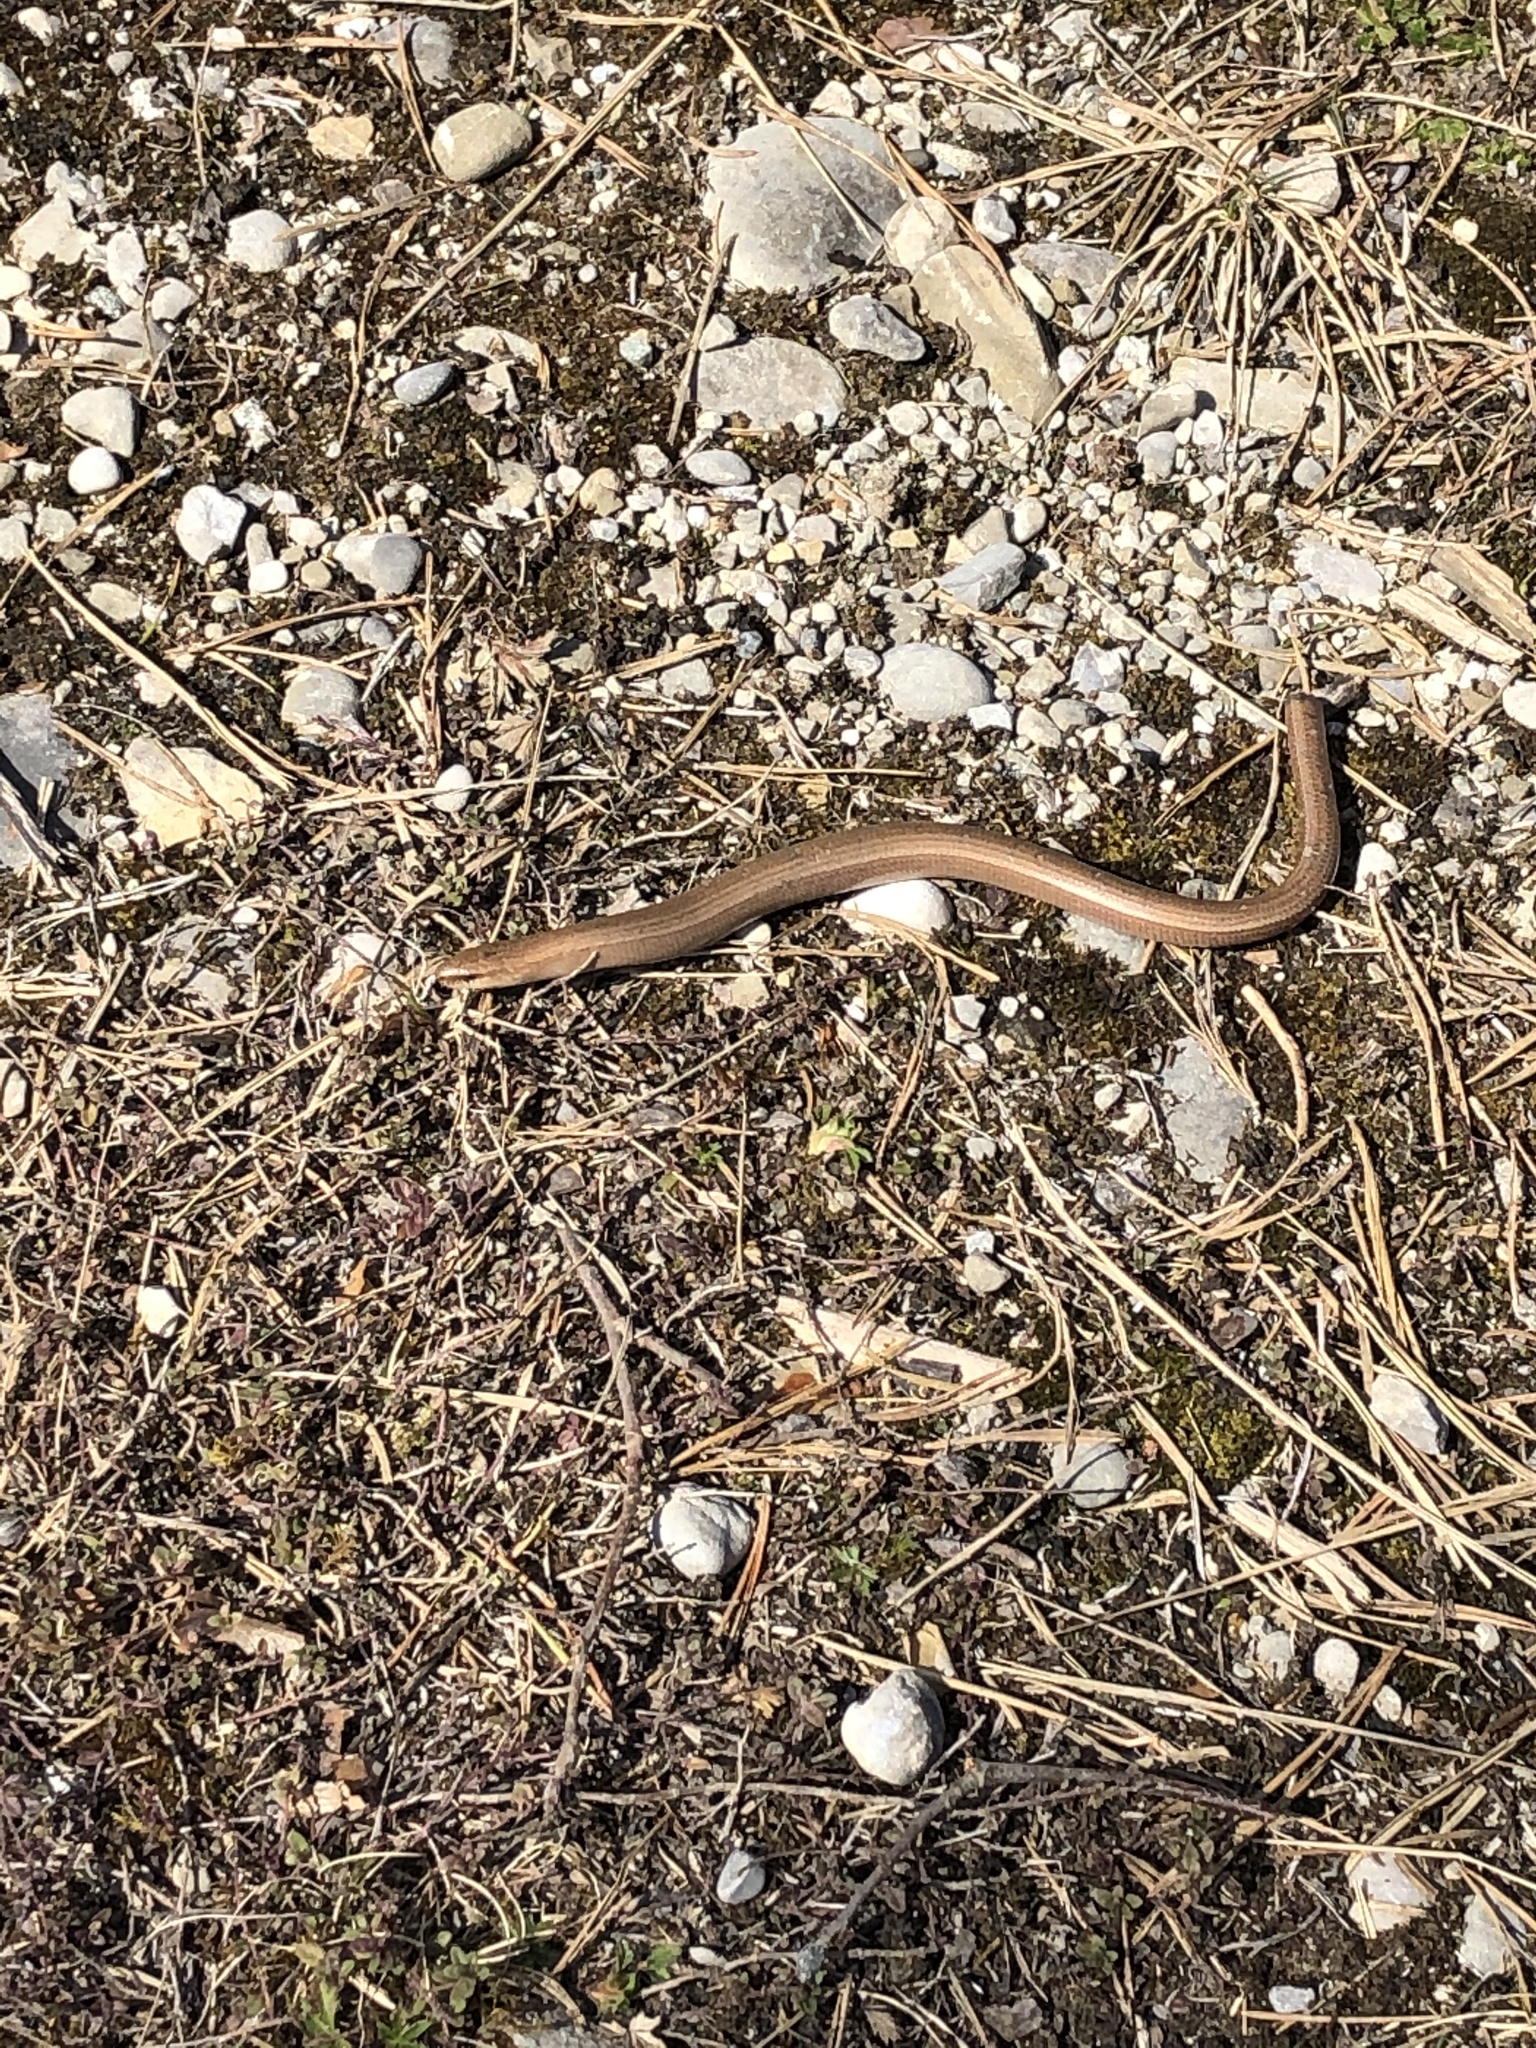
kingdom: Animalia
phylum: Chordata
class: Squamata
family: Anguidae
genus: Anguis
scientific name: Anguis fragilis
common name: Slow worm
